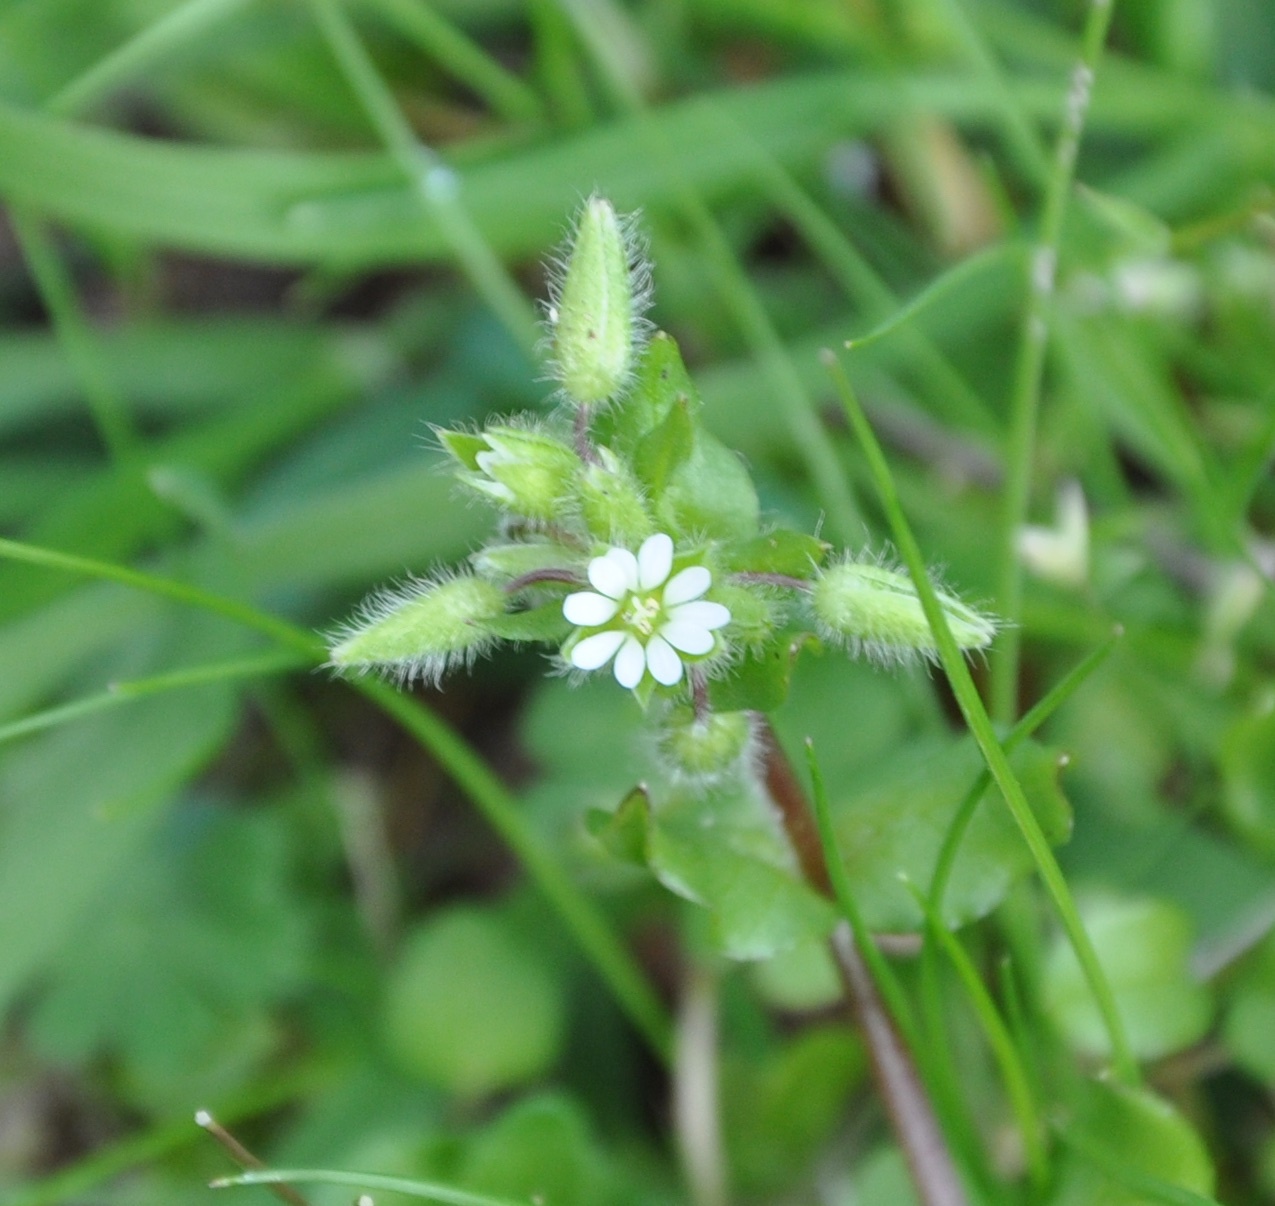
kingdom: Plantae
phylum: Tracheophyta
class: Magnoliopsida
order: Caryophyllales
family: Caryophyllaceae
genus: Stellaria
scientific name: Stellaria media
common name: Common chickweed
